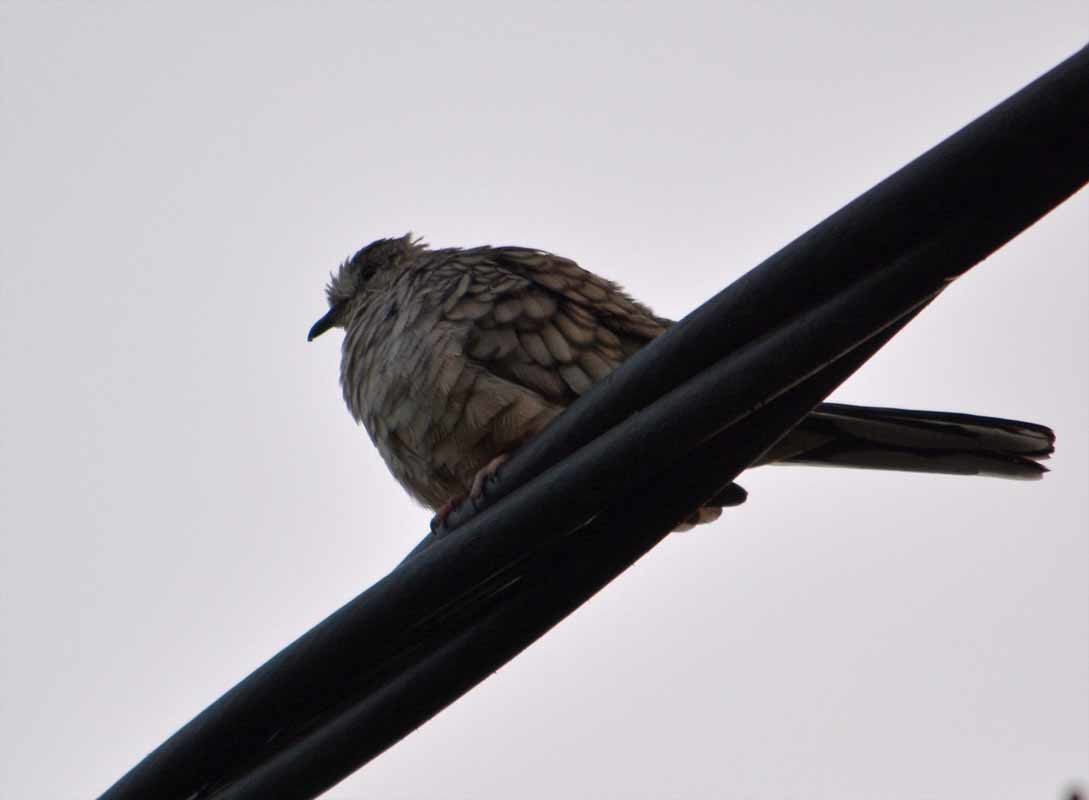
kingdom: Animalia
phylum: Chordata
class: Aves
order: Columbiformes
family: Columbidae
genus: Columbina
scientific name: Columbina inca
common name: Inca dove
